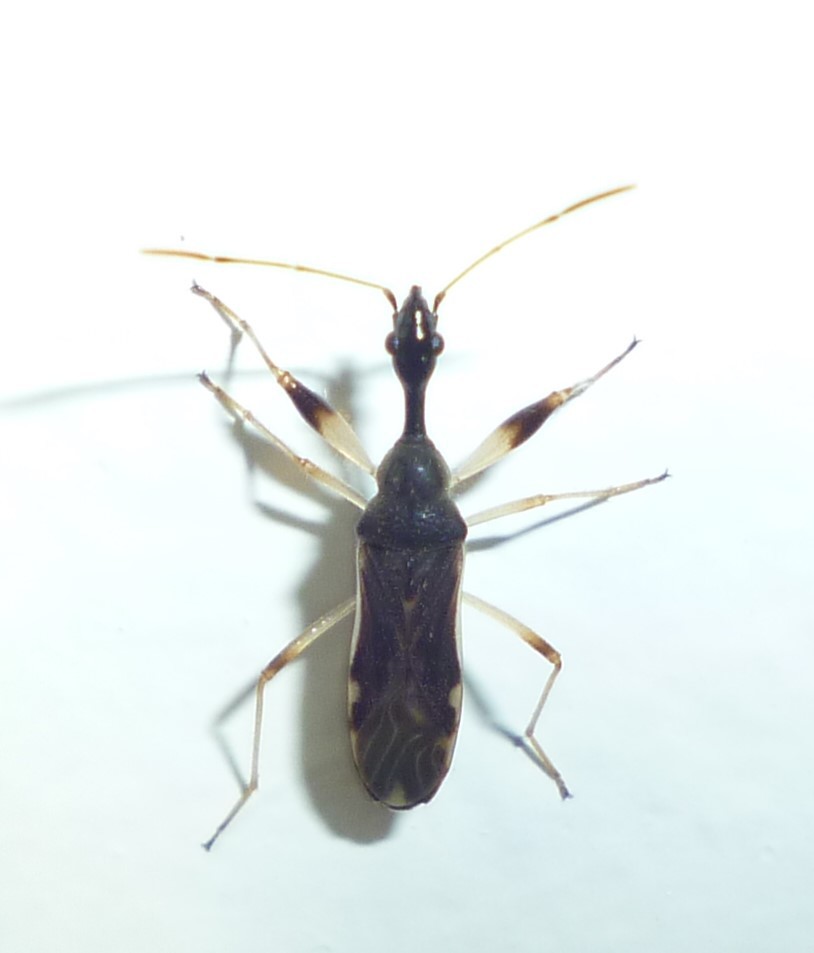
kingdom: Animalia
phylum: Arthropoda
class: Insecta
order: Hemiptera
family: Rhyparochromidae
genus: Myodocha
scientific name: Myodocha serripes
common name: Long-necked seed bug
